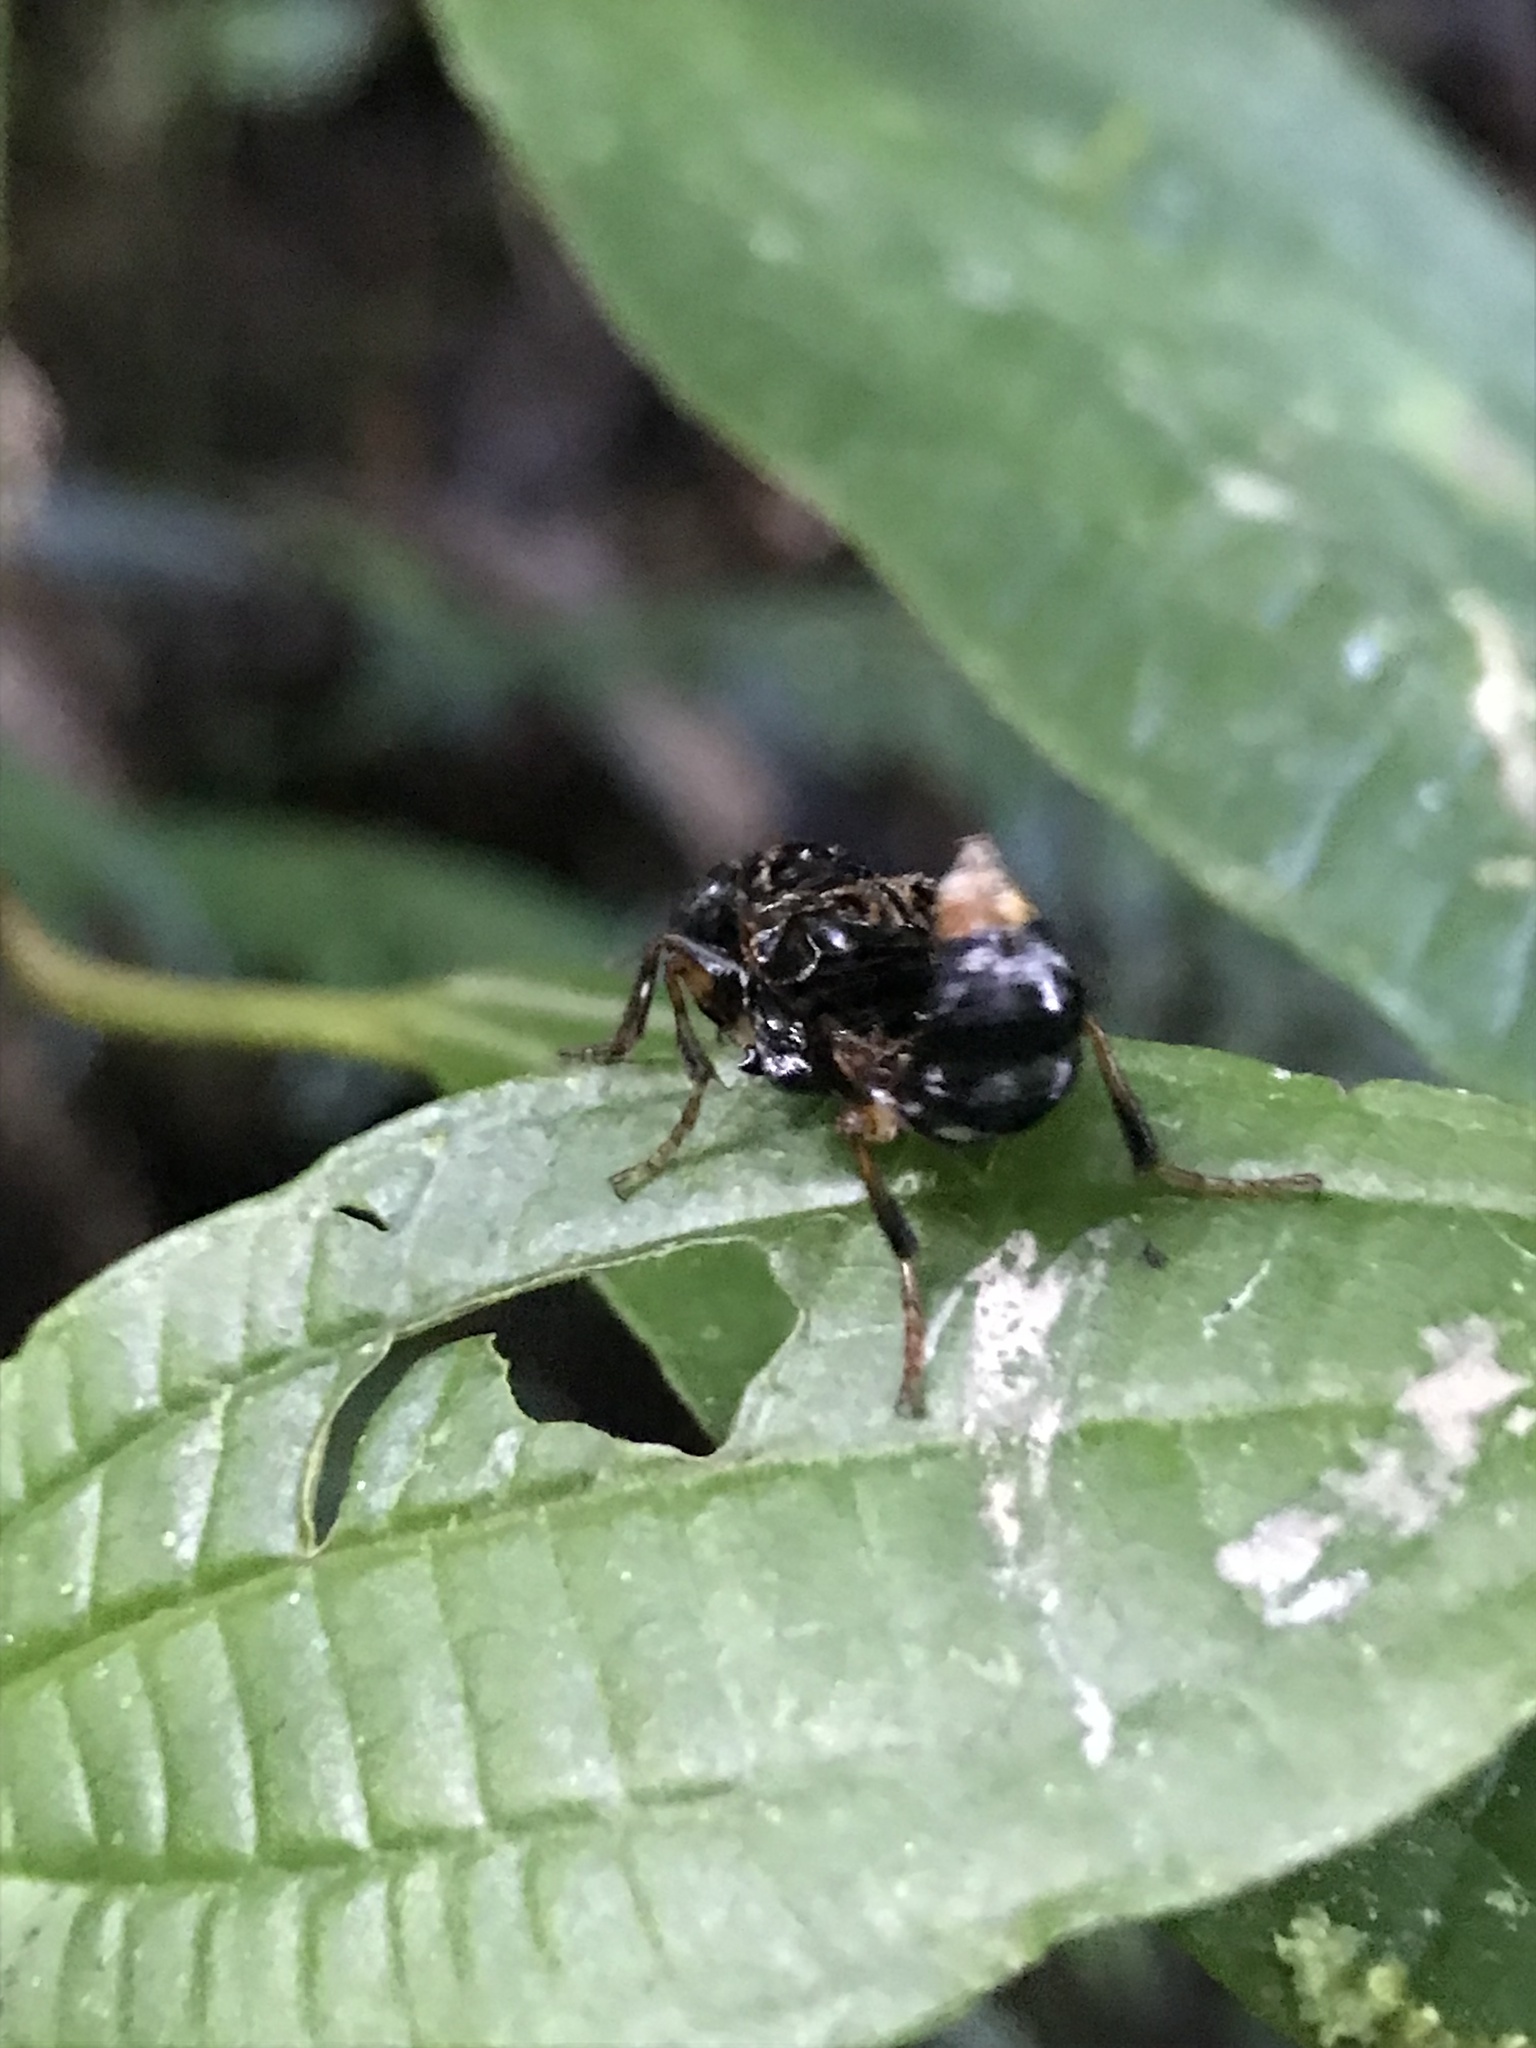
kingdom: Animalia
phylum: Arthropoda
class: Insecta
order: Coleoptera
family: Staphylinidae
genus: Leistotrophus
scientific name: Leistotrophus versicolor
